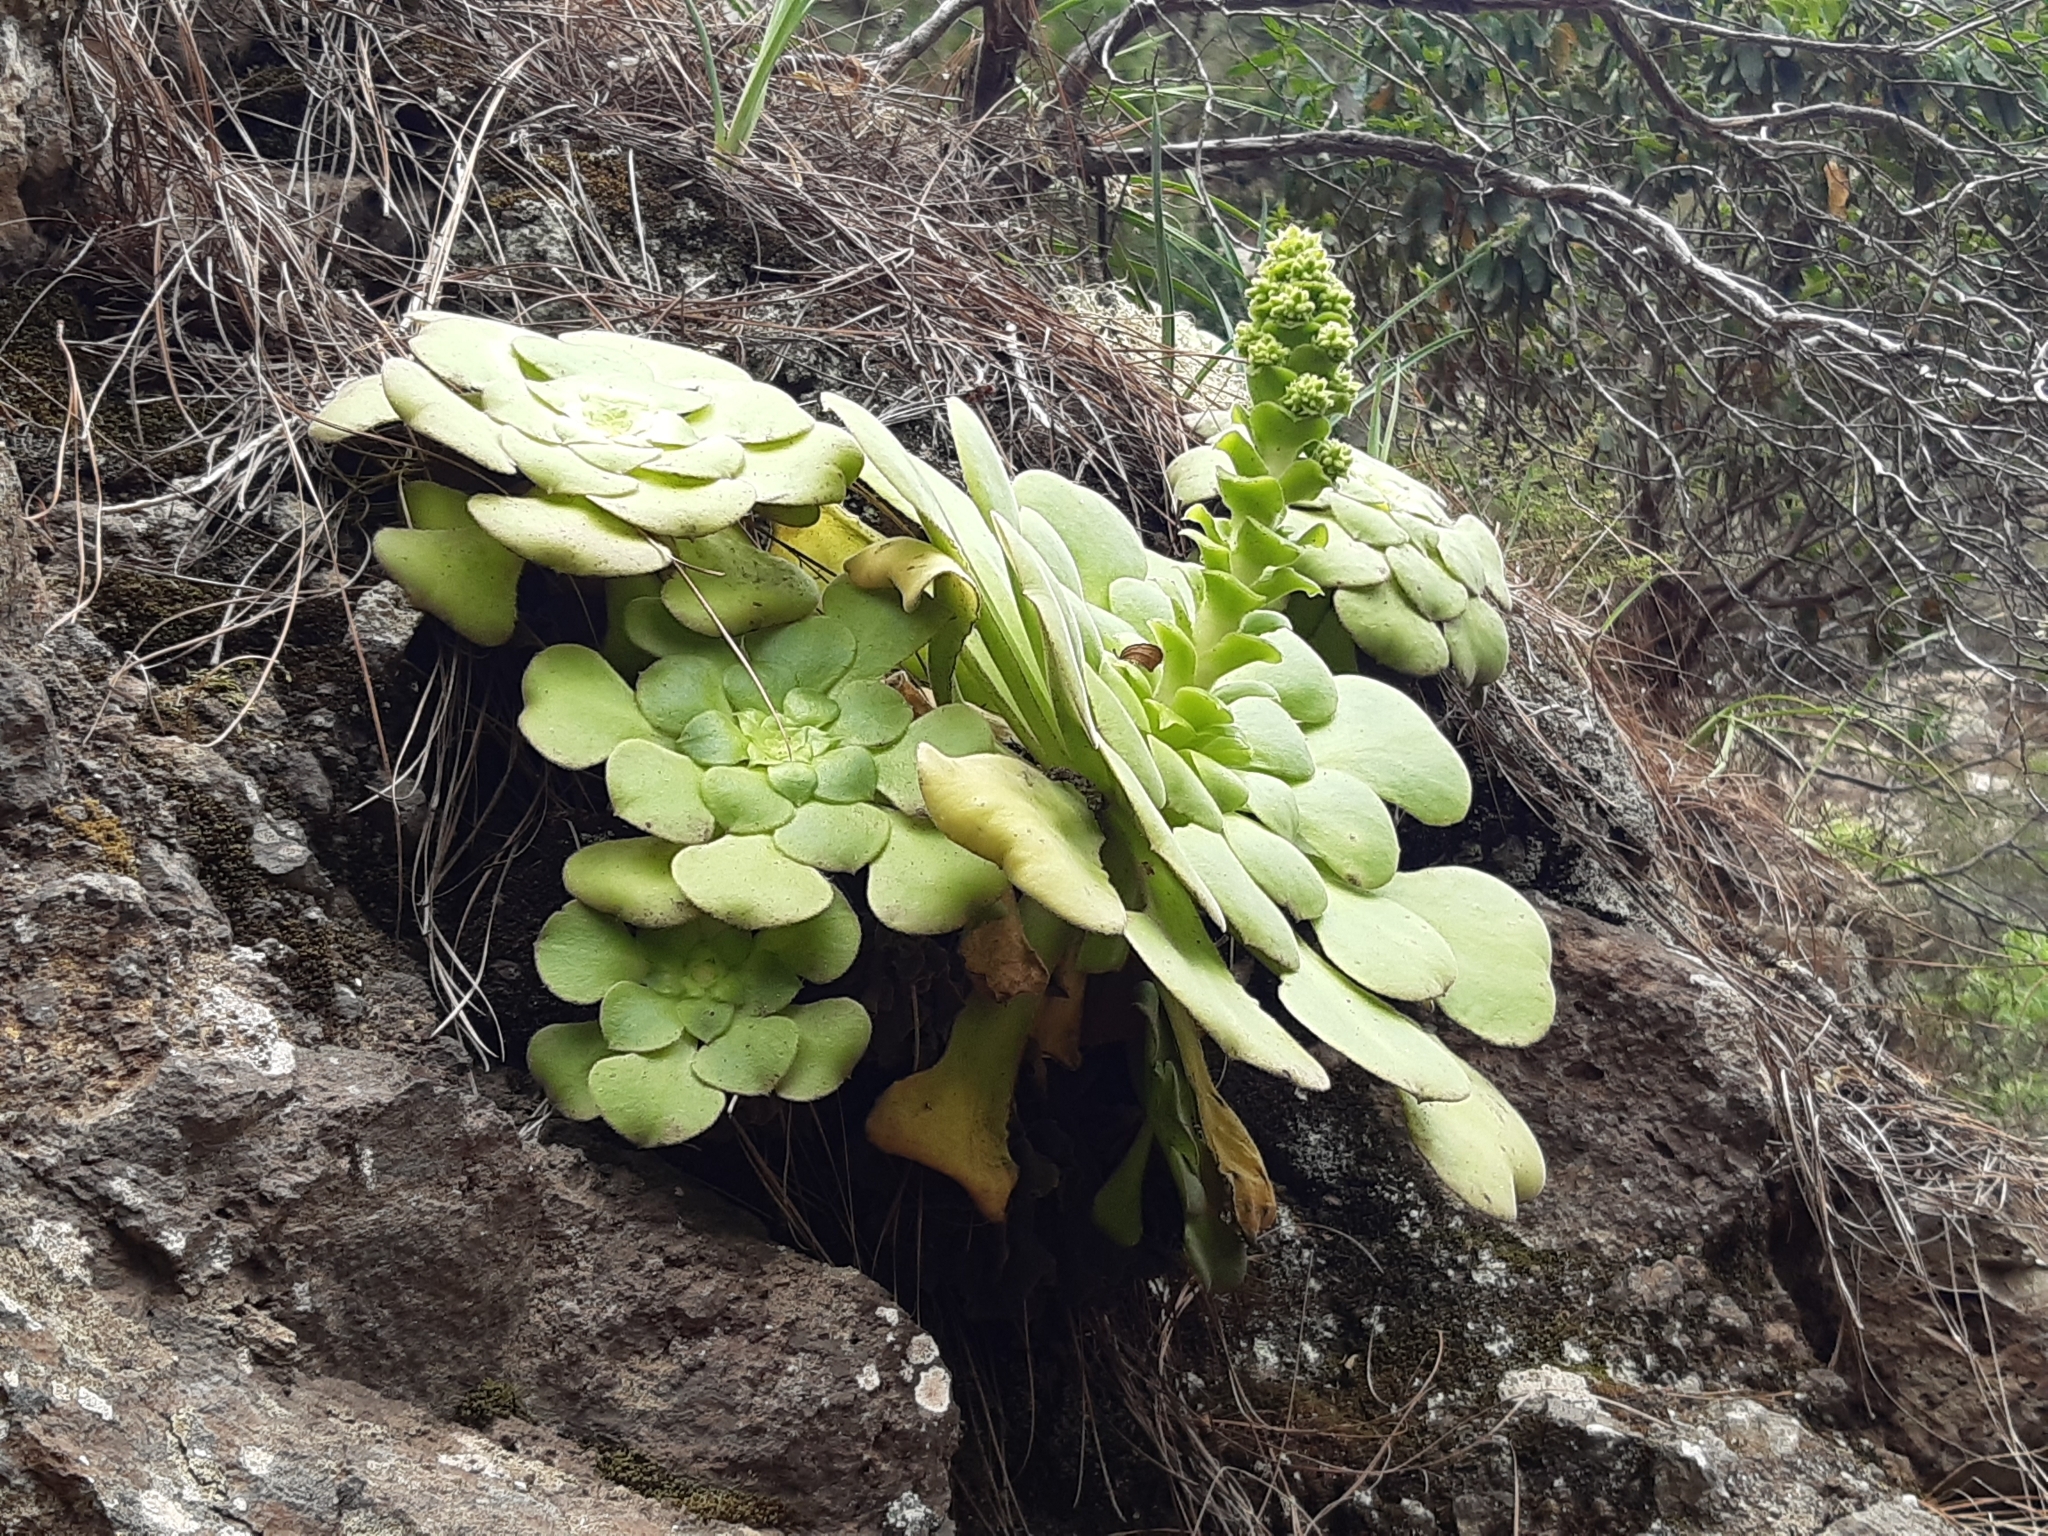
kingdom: Plantae
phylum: Tracheophyta
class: Magnoliopsida
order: Saxifragales
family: Crassulaceae
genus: Aeonium
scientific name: Aeonium canariense
